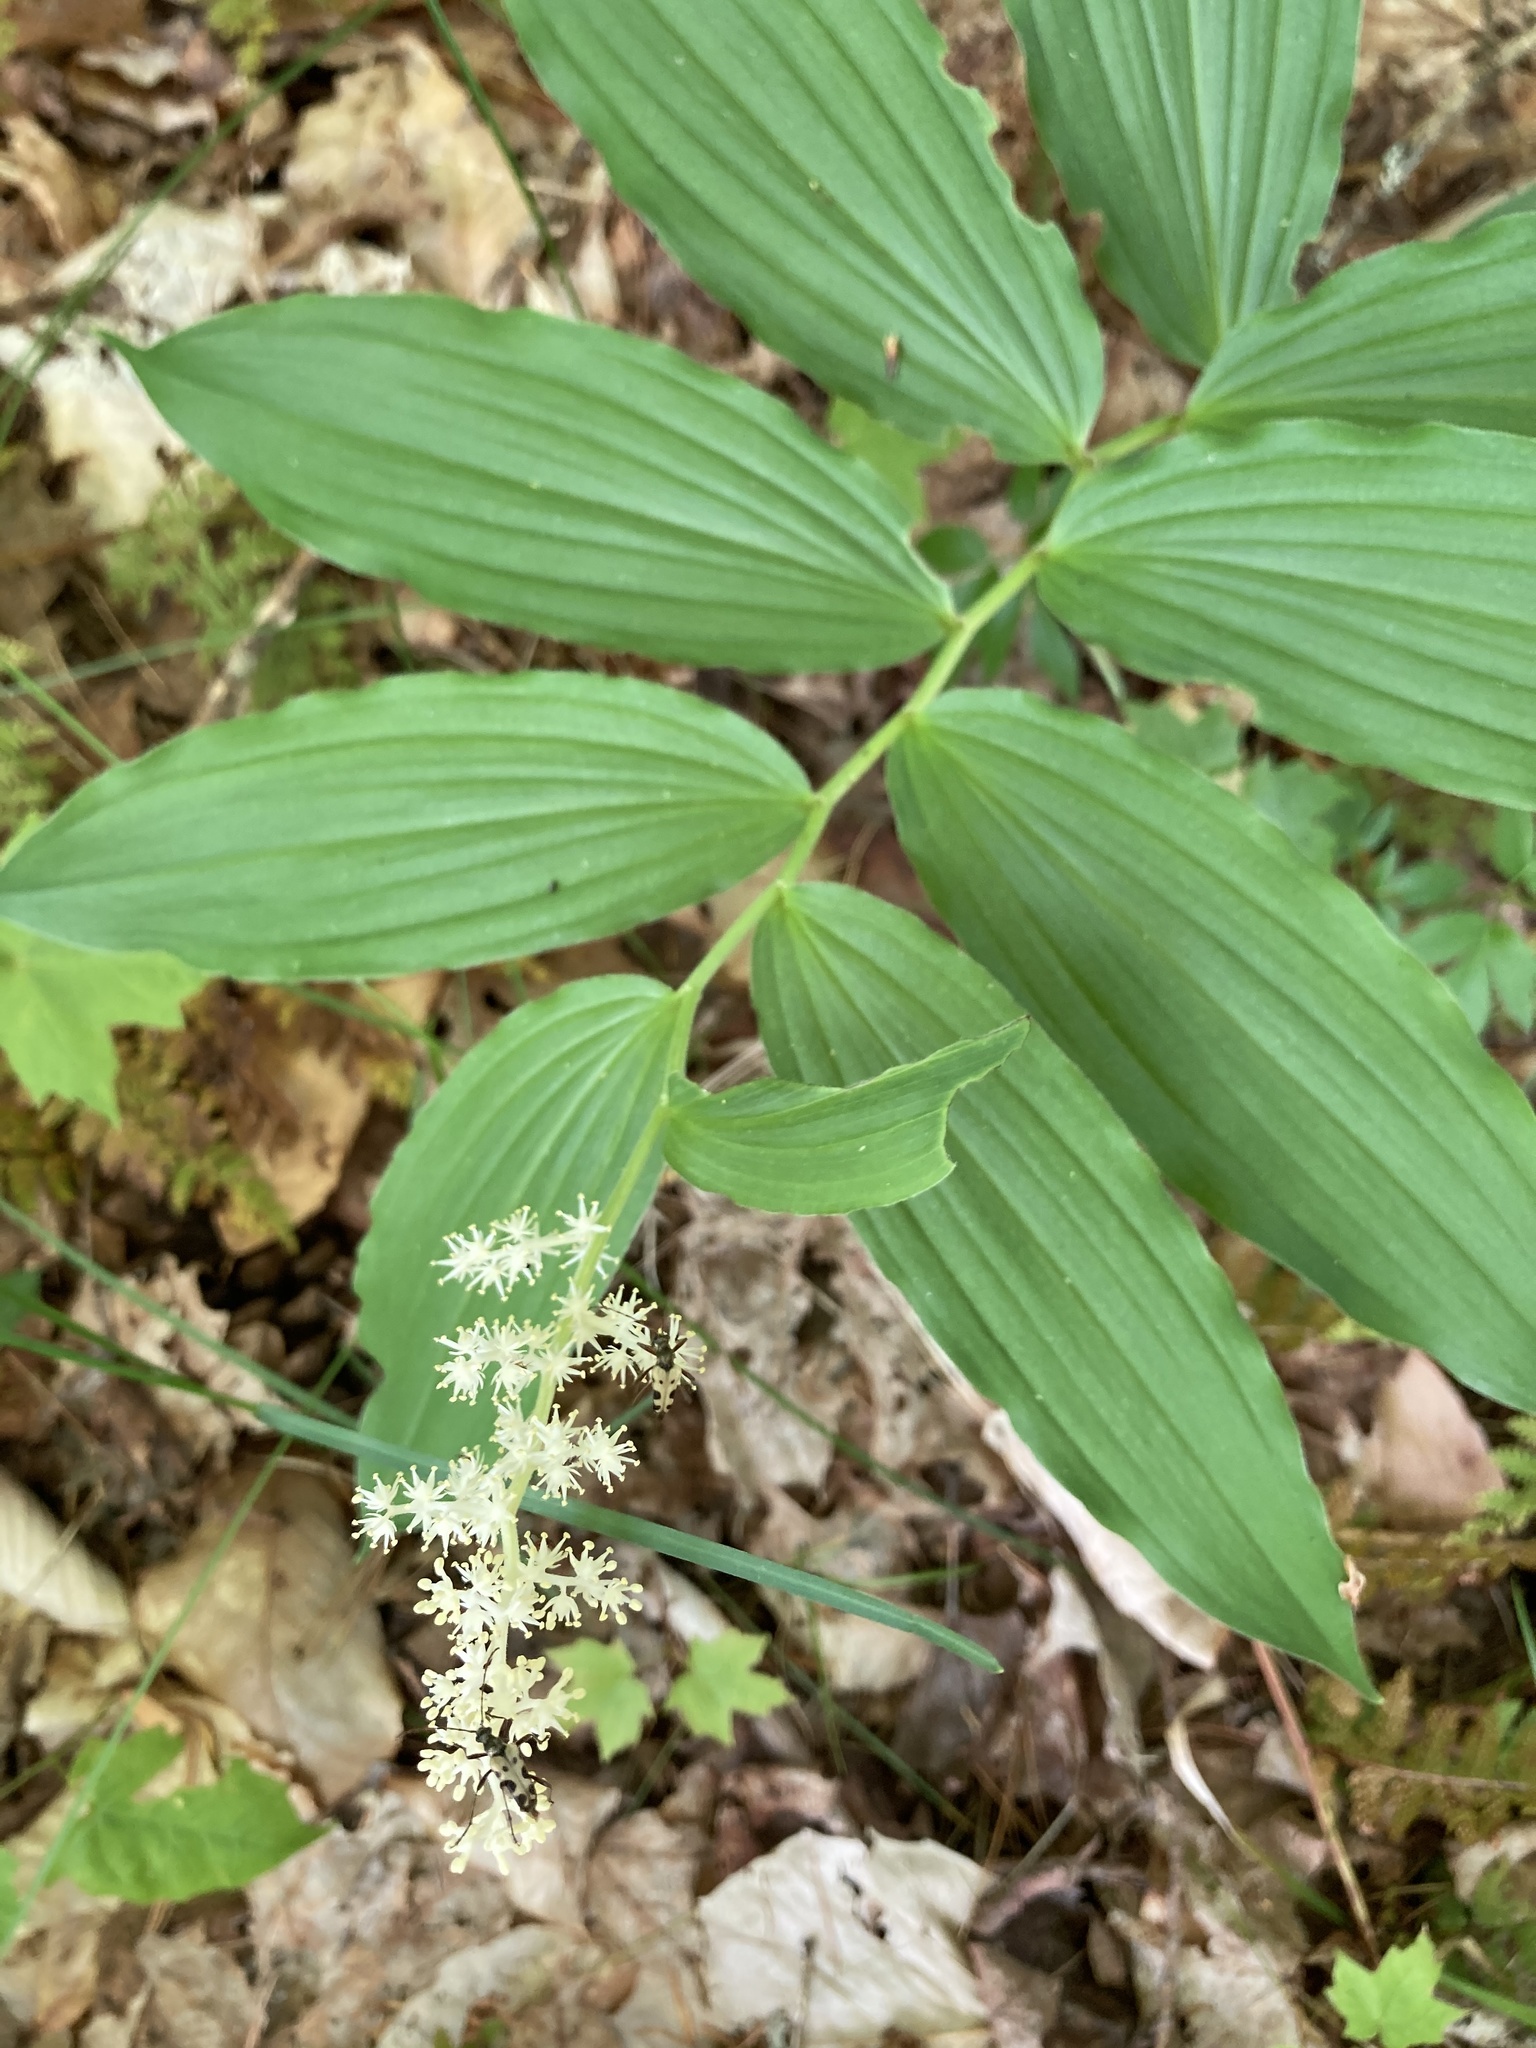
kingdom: Plantae
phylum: Tracheophyta
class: Liliopsida
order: Asparagales
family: Asparagaceae
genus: Maianthemum
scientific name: Maianthemum racemosum
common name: False spikenard
